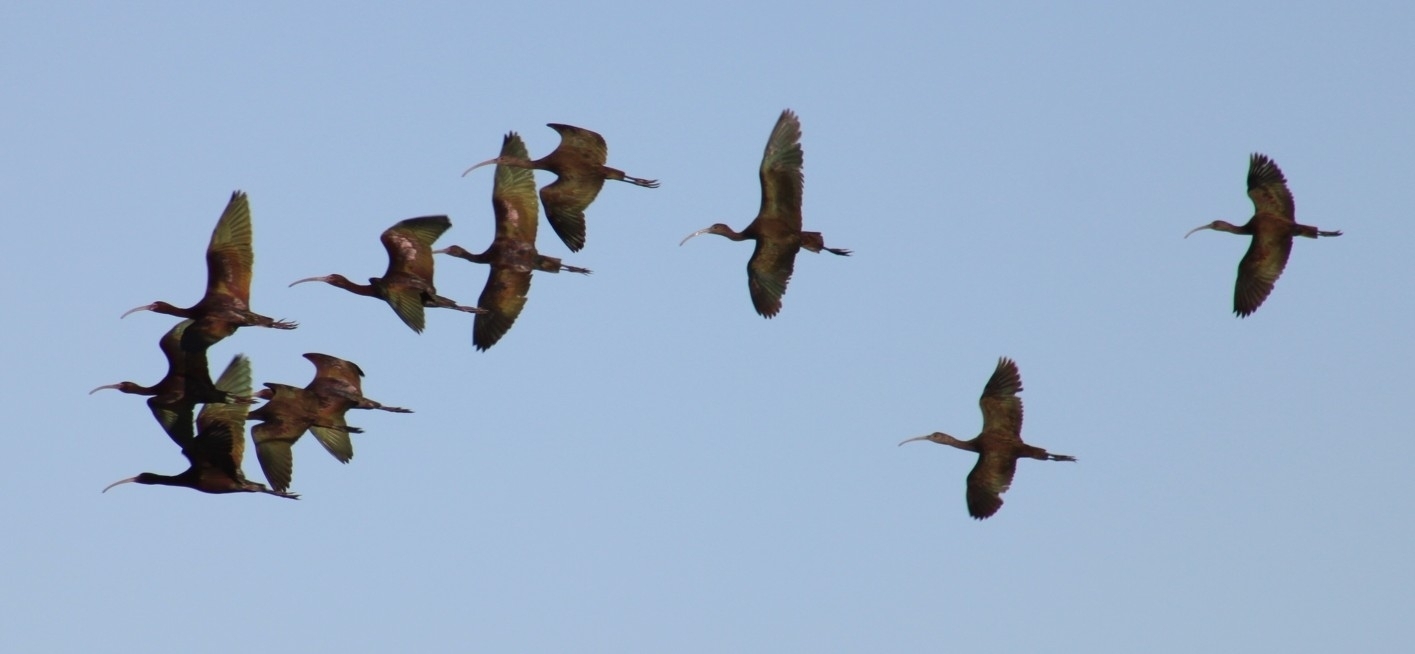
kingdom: Animalia
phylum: Chordata
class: Aves
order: Pelecaniformes
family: Threskiornithidae
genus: Plegadis
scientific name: Plegadis chihi
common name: White-faced ibis
